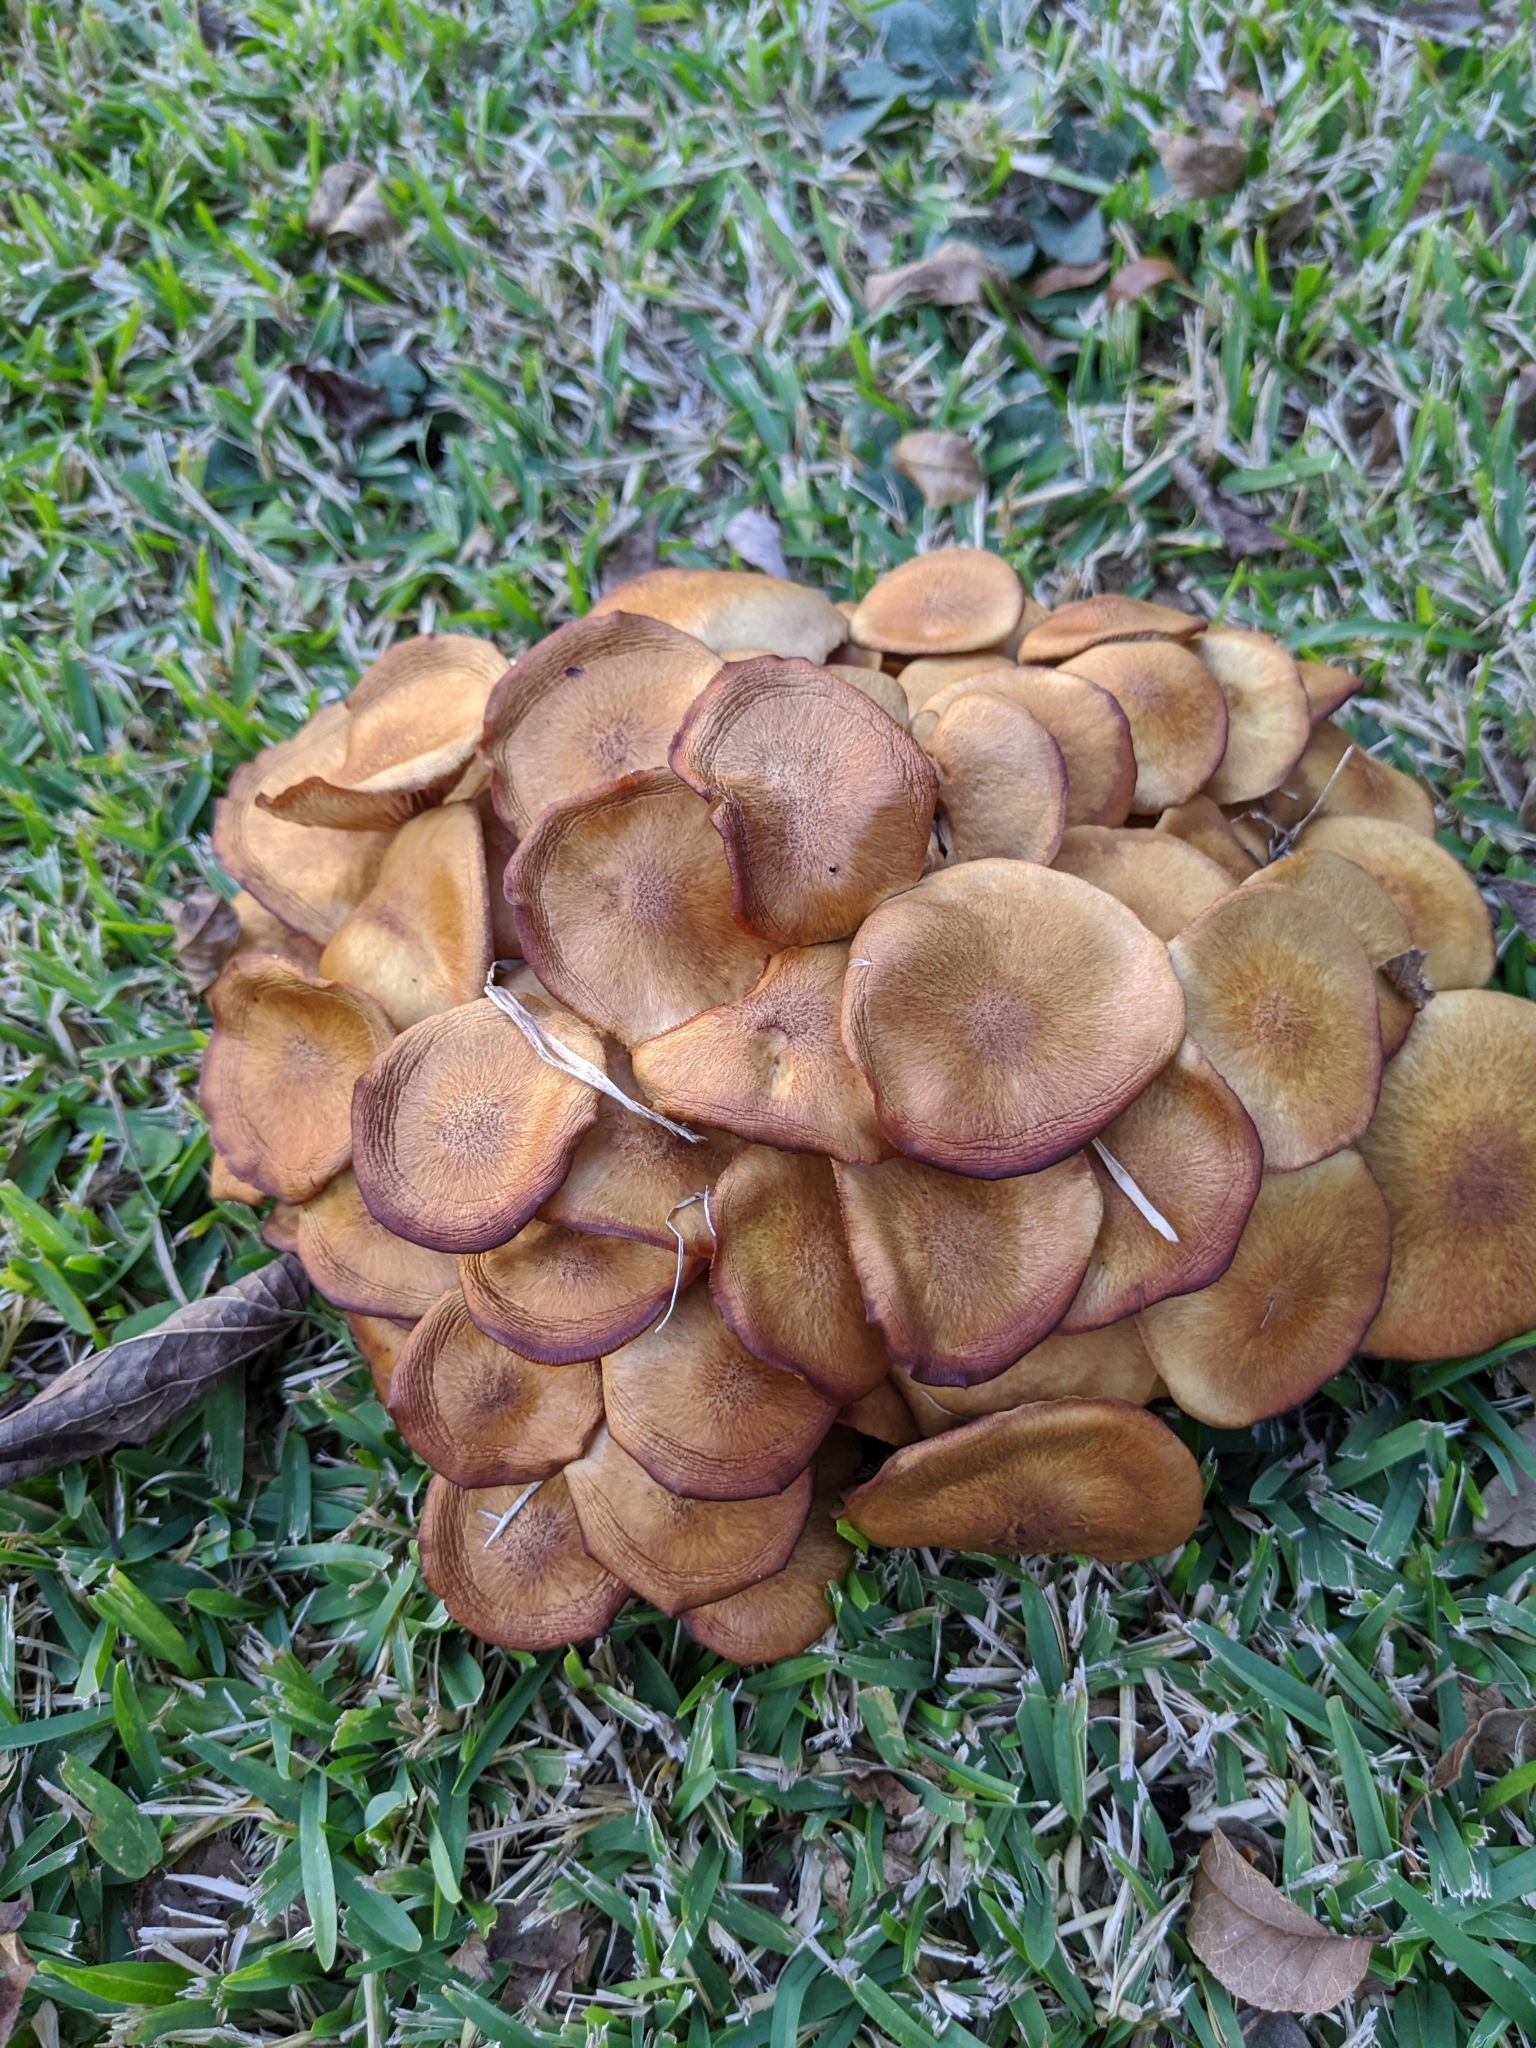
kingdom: Fungi
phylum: Basidiomycota
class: Agaricomycetes
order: Agaricales
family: Physalacriaceae
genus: Desarmillaria
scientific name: Desarmillaria caespitosa
